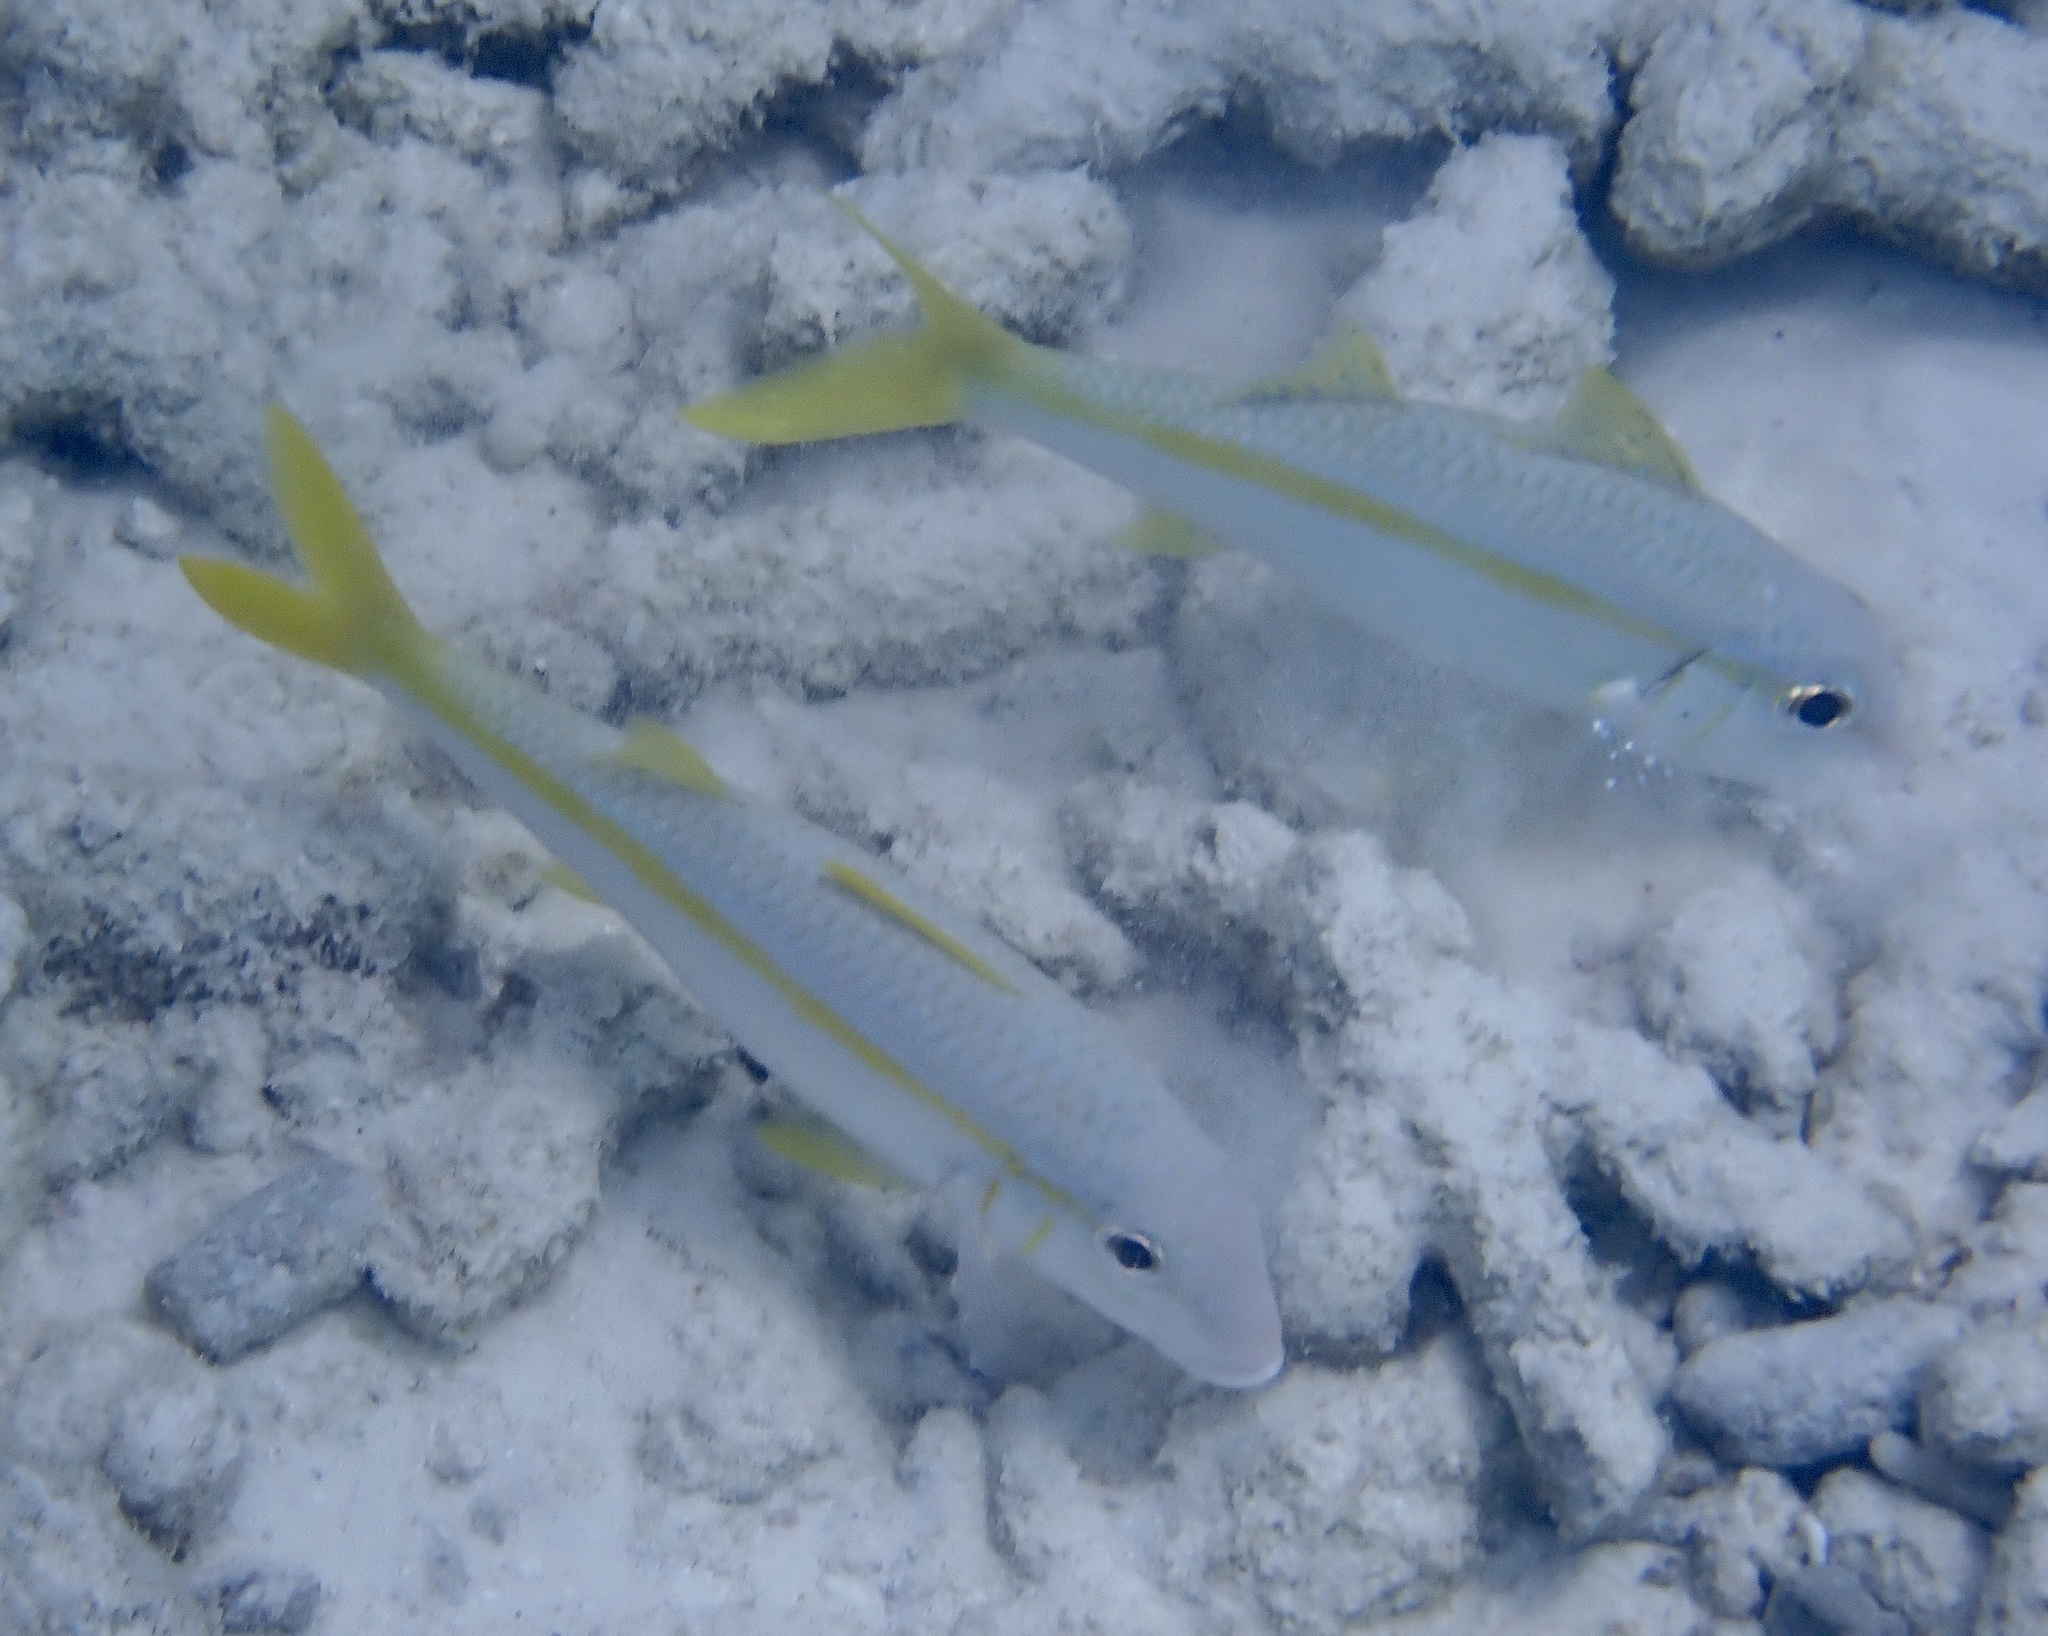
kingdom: Animalia
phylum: Chordata
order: Perciformes
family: Mullidae
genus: Mulloidichthys
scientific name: Mulloidichthys martinicus
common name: Yellow goatfish
